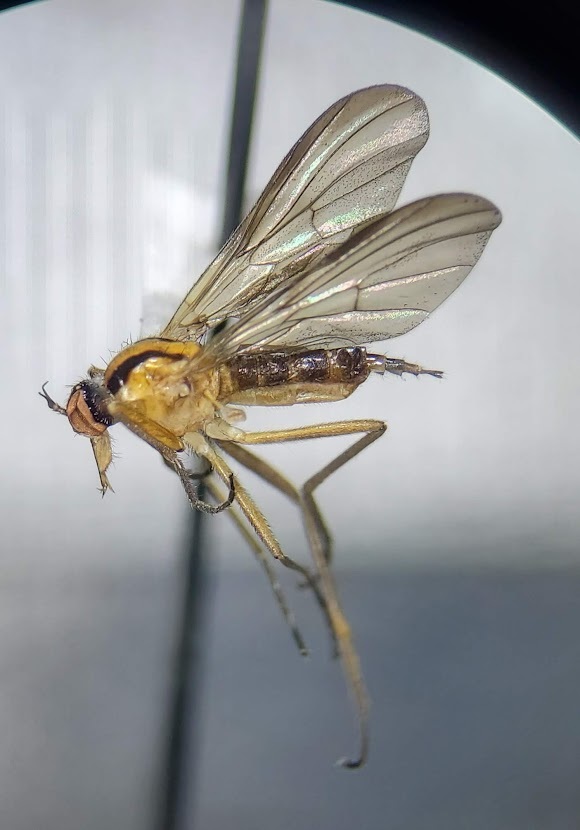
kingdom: Animalia
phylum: Arthropoda
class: Insecta
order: Diptera
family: Empididae
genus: Rhamphomyia
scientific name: Rhamphomyia vittata
